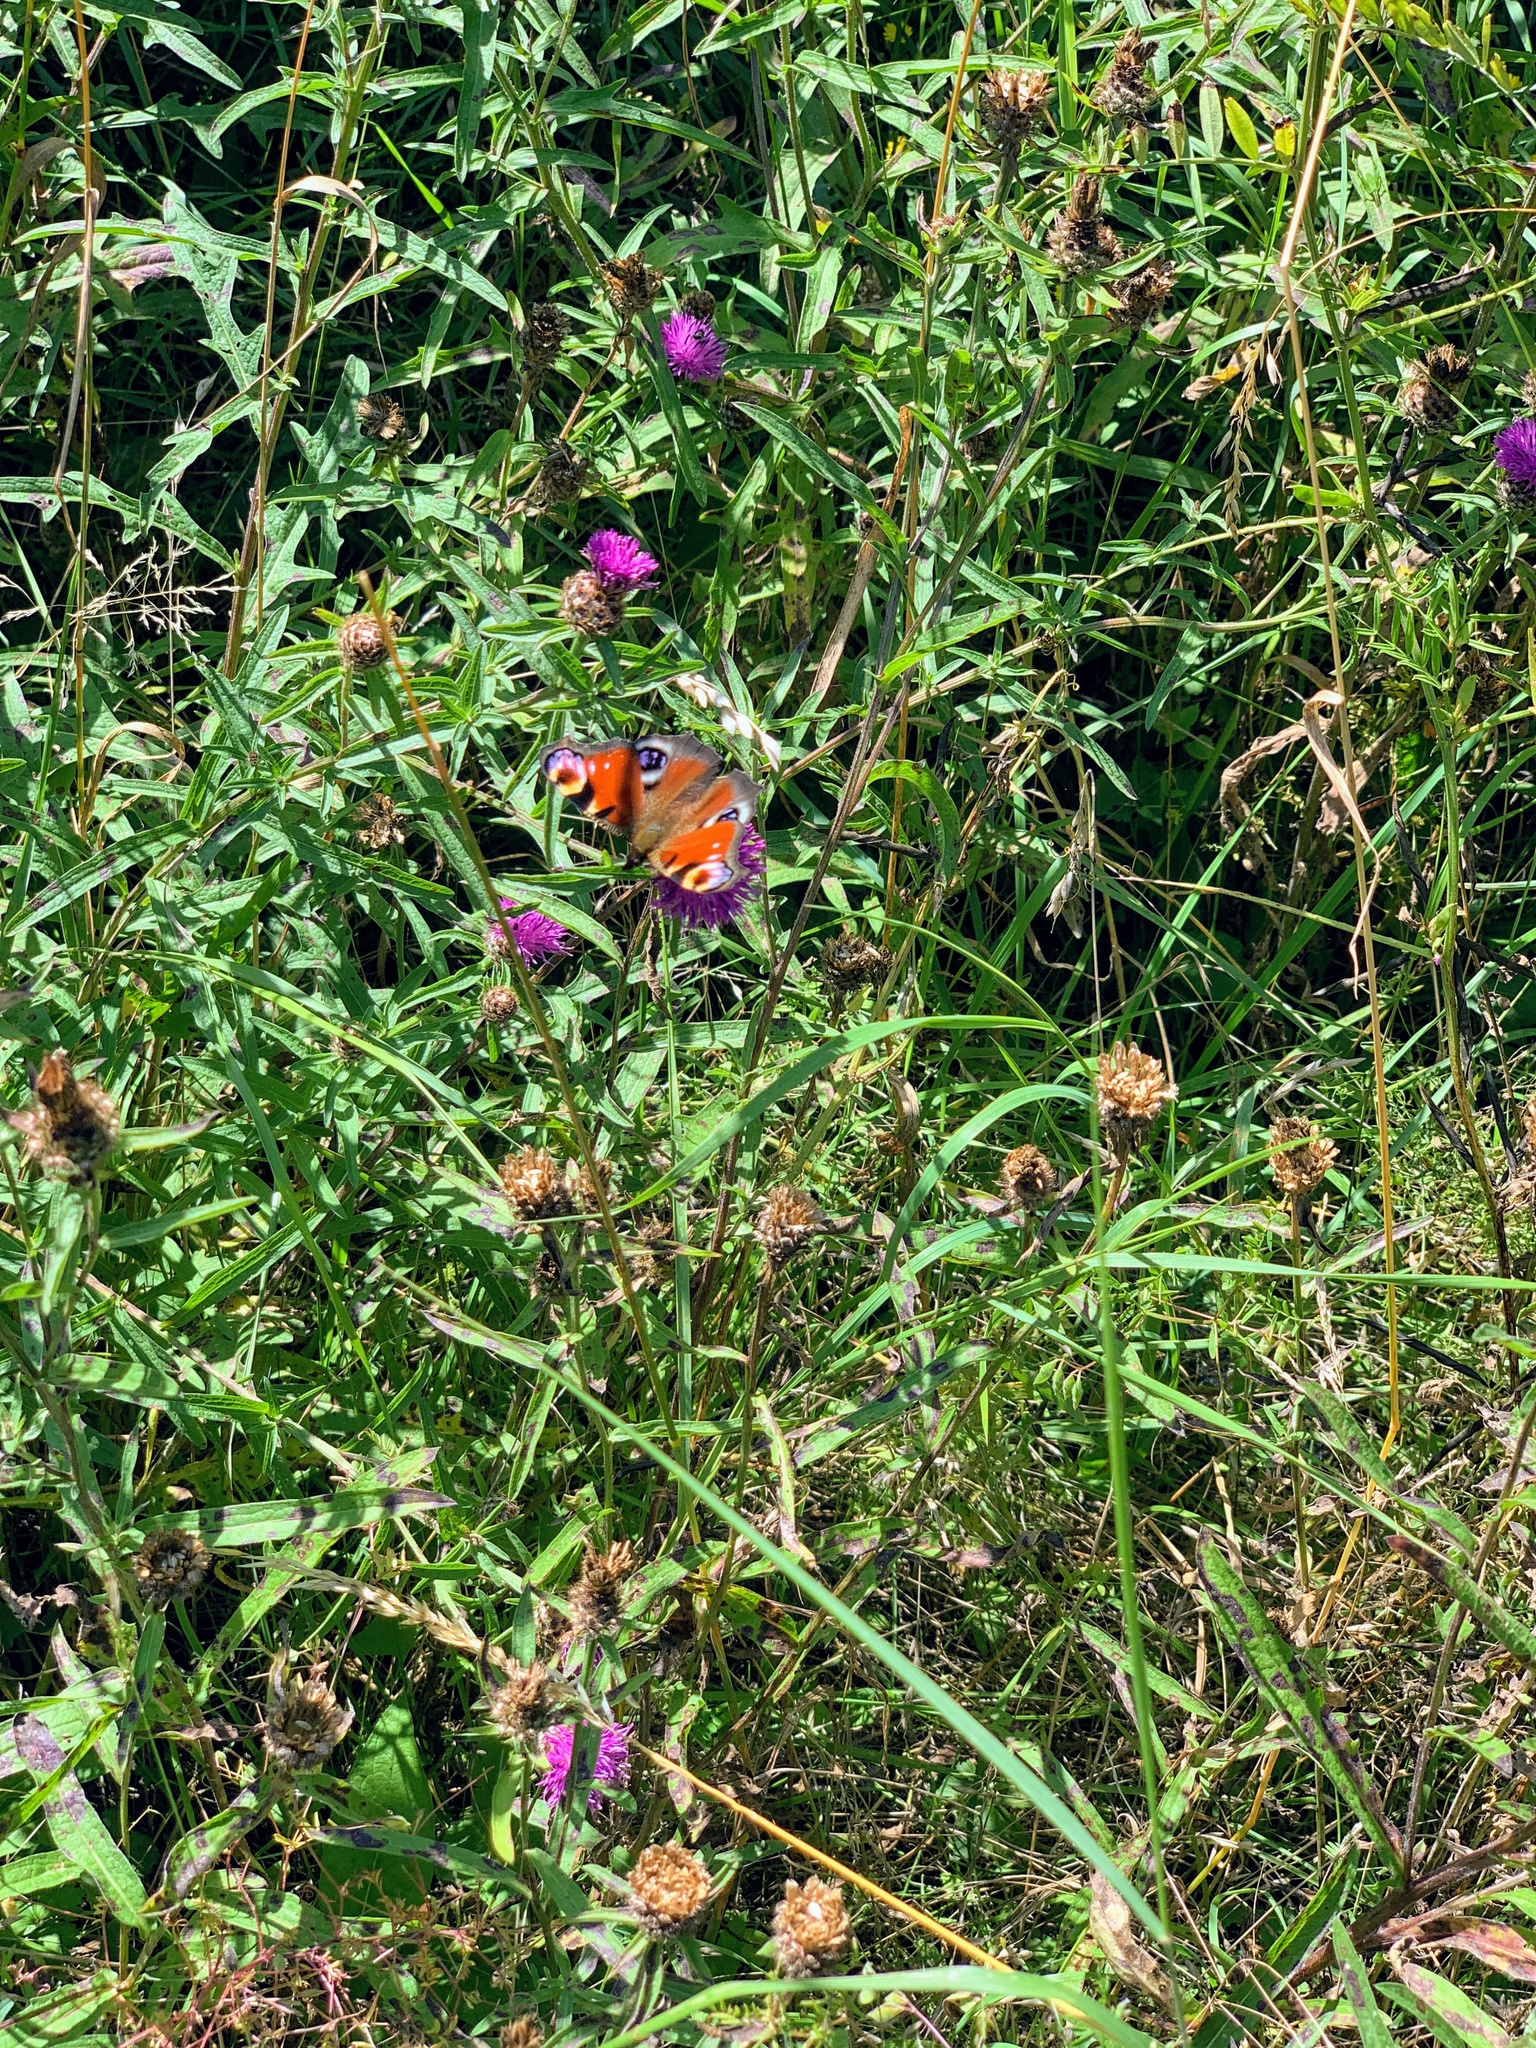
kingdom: Animalia
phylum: Arthropoda
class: Insecta
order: Lepidoptera
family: Nymphalidae
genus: Aglais
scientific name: Aglais io
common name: Peacock
